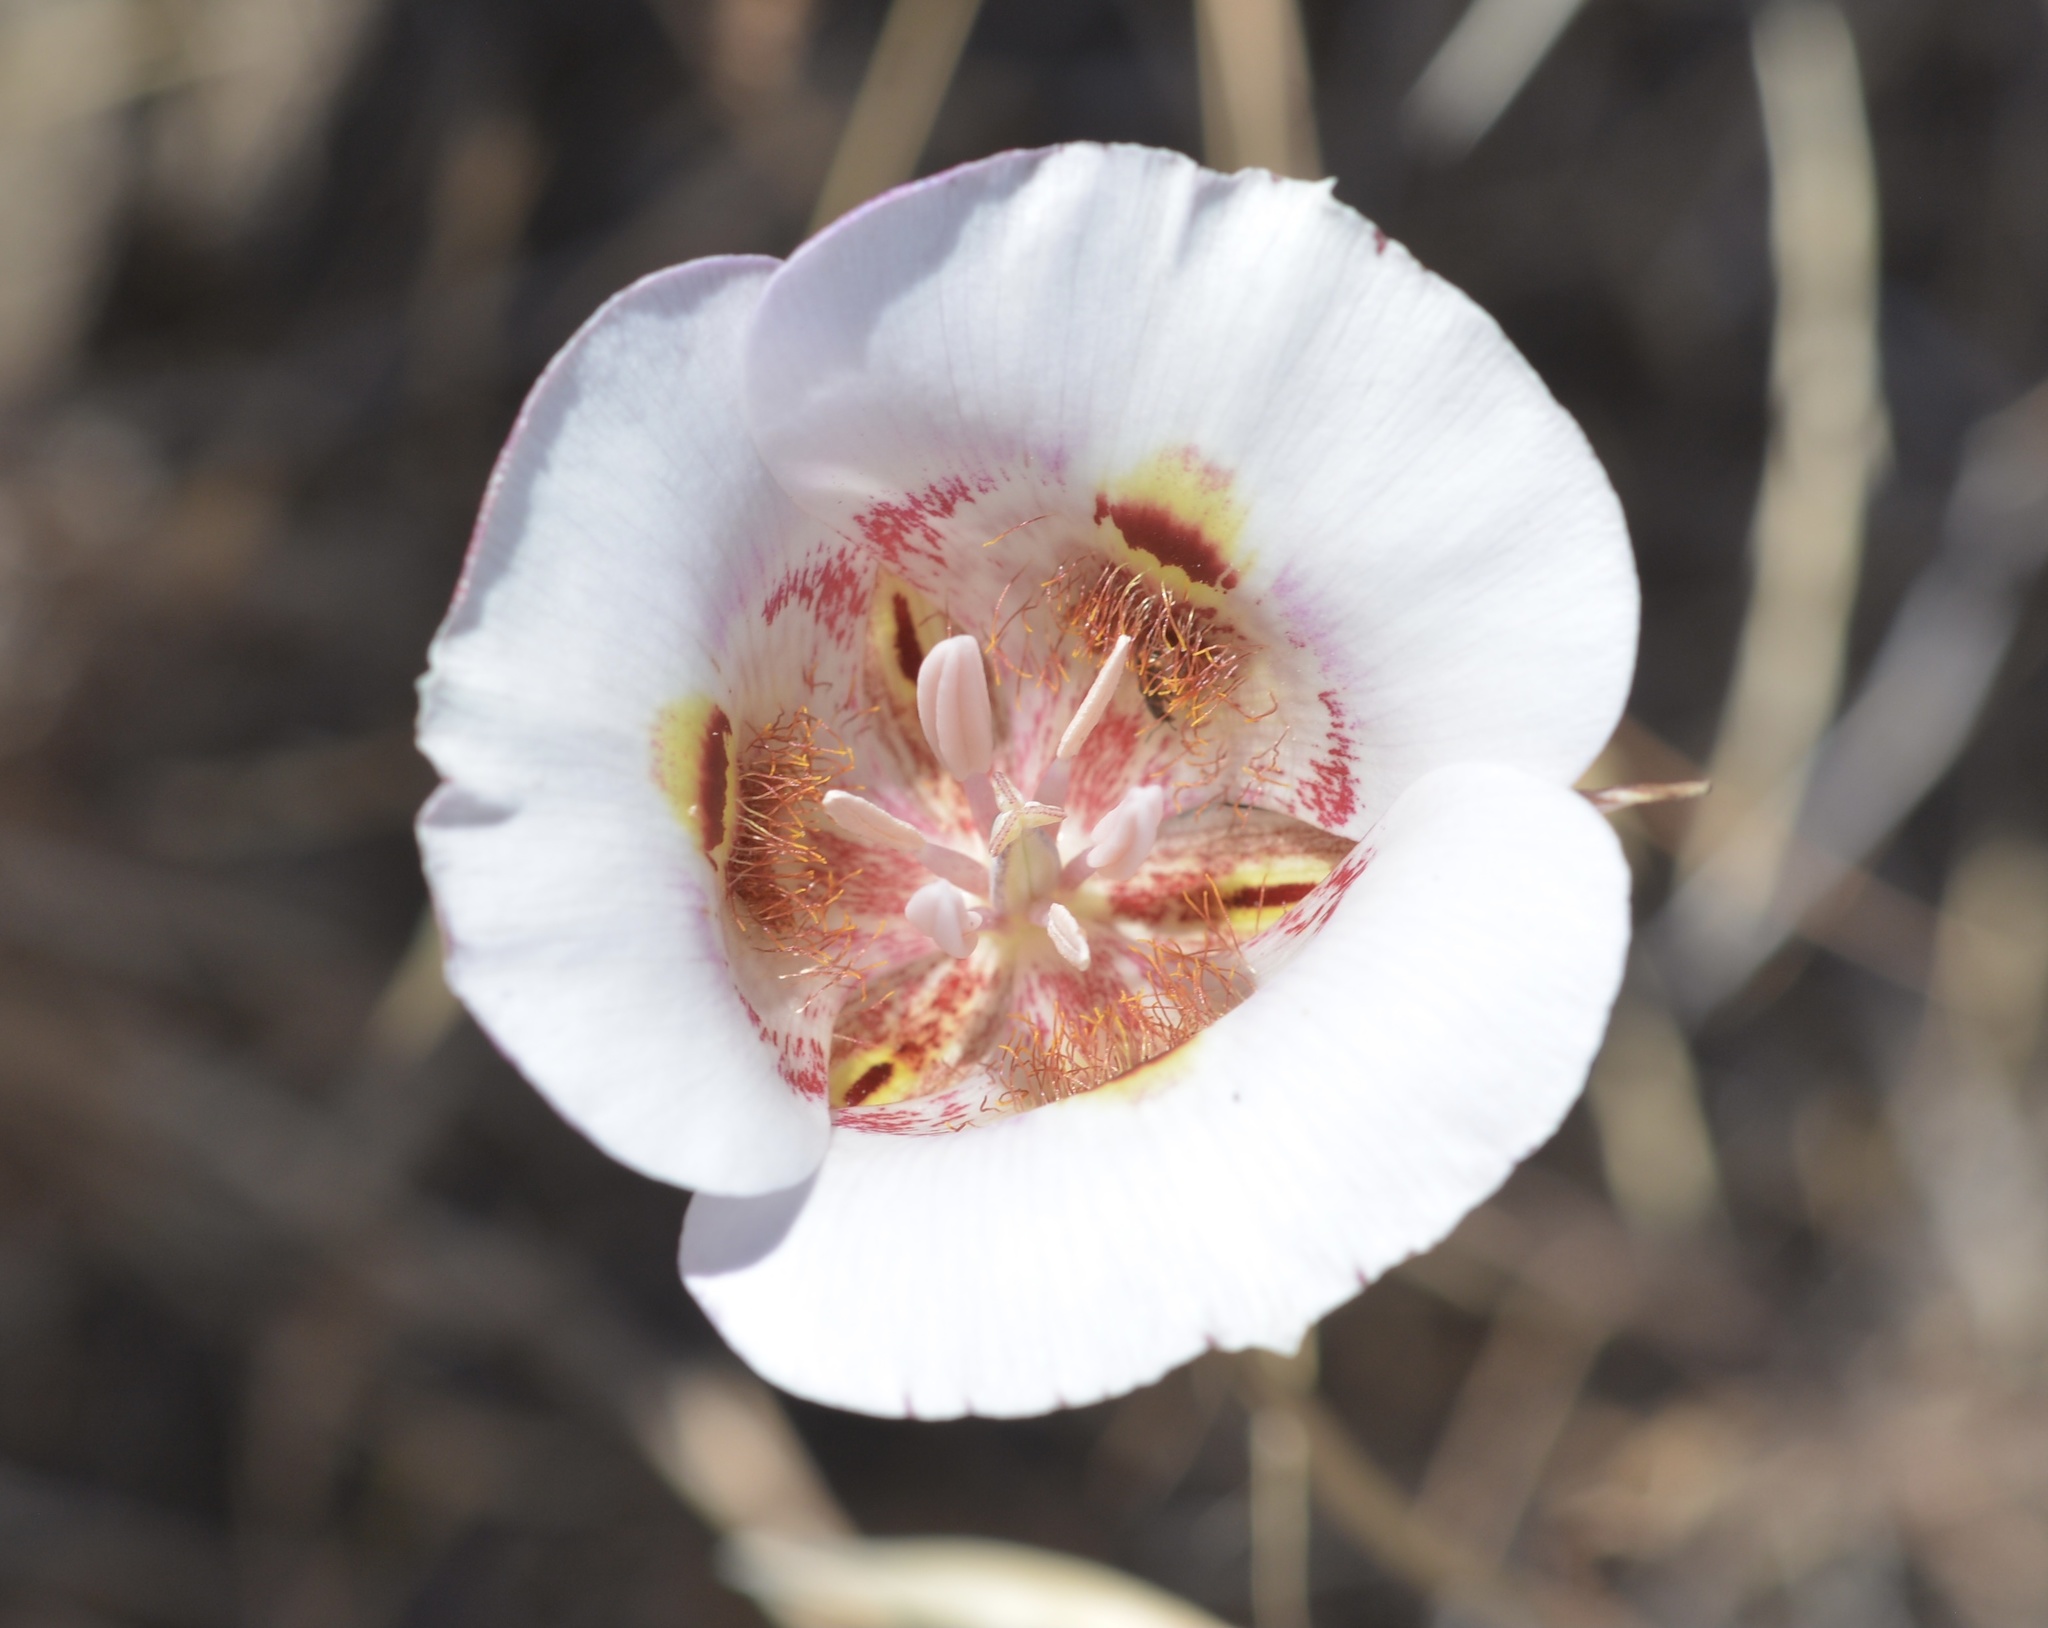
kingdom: Plantae
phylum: Tracheophyta
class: Liliopsida
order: Liliales
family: Liliaceae
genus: Calochortus
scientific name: Calochortus argillosus
